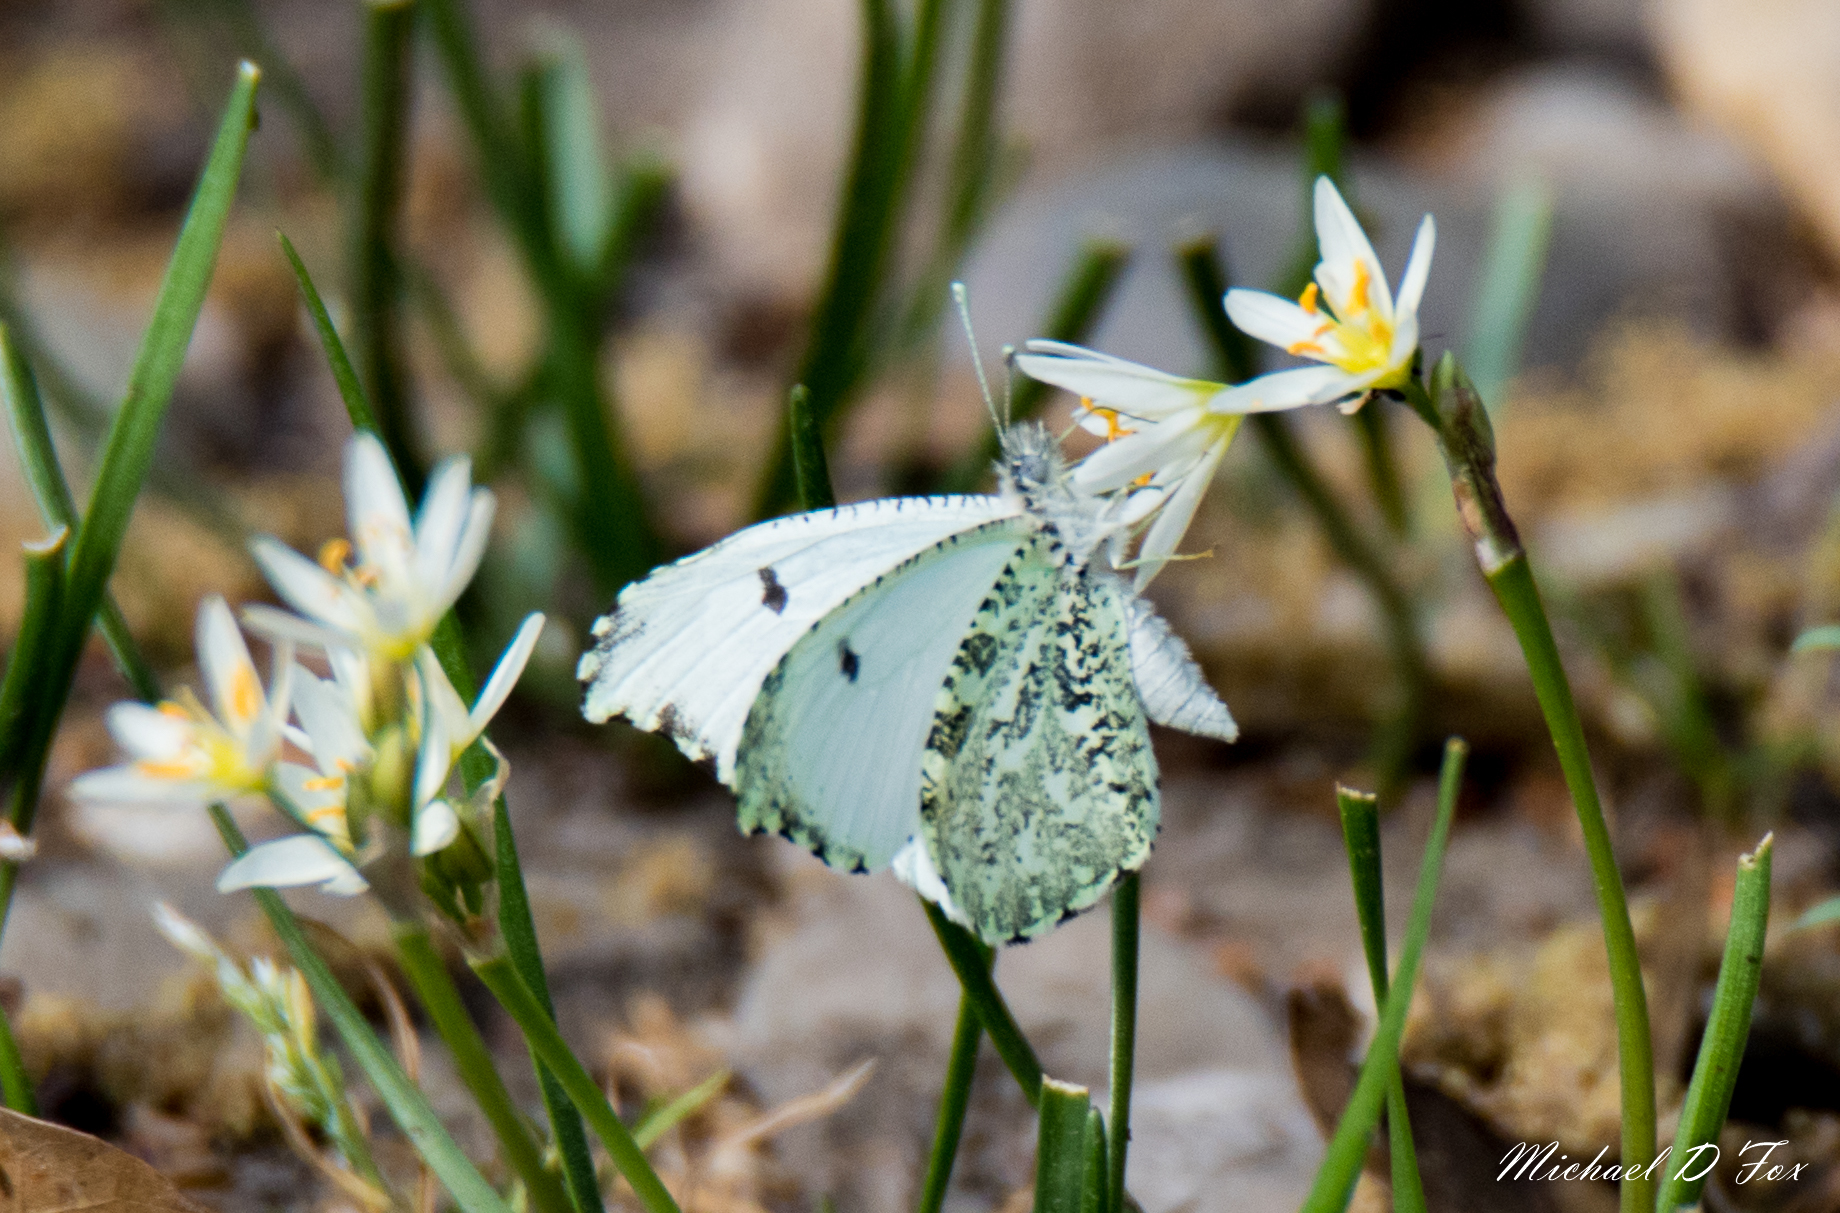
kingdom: Animalia
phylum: Arthropoda
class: Insecta
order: Lepidoptera
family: Pieridae
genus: Anthocharis
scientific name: Anthocharis midea
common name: Falcate orangetip
